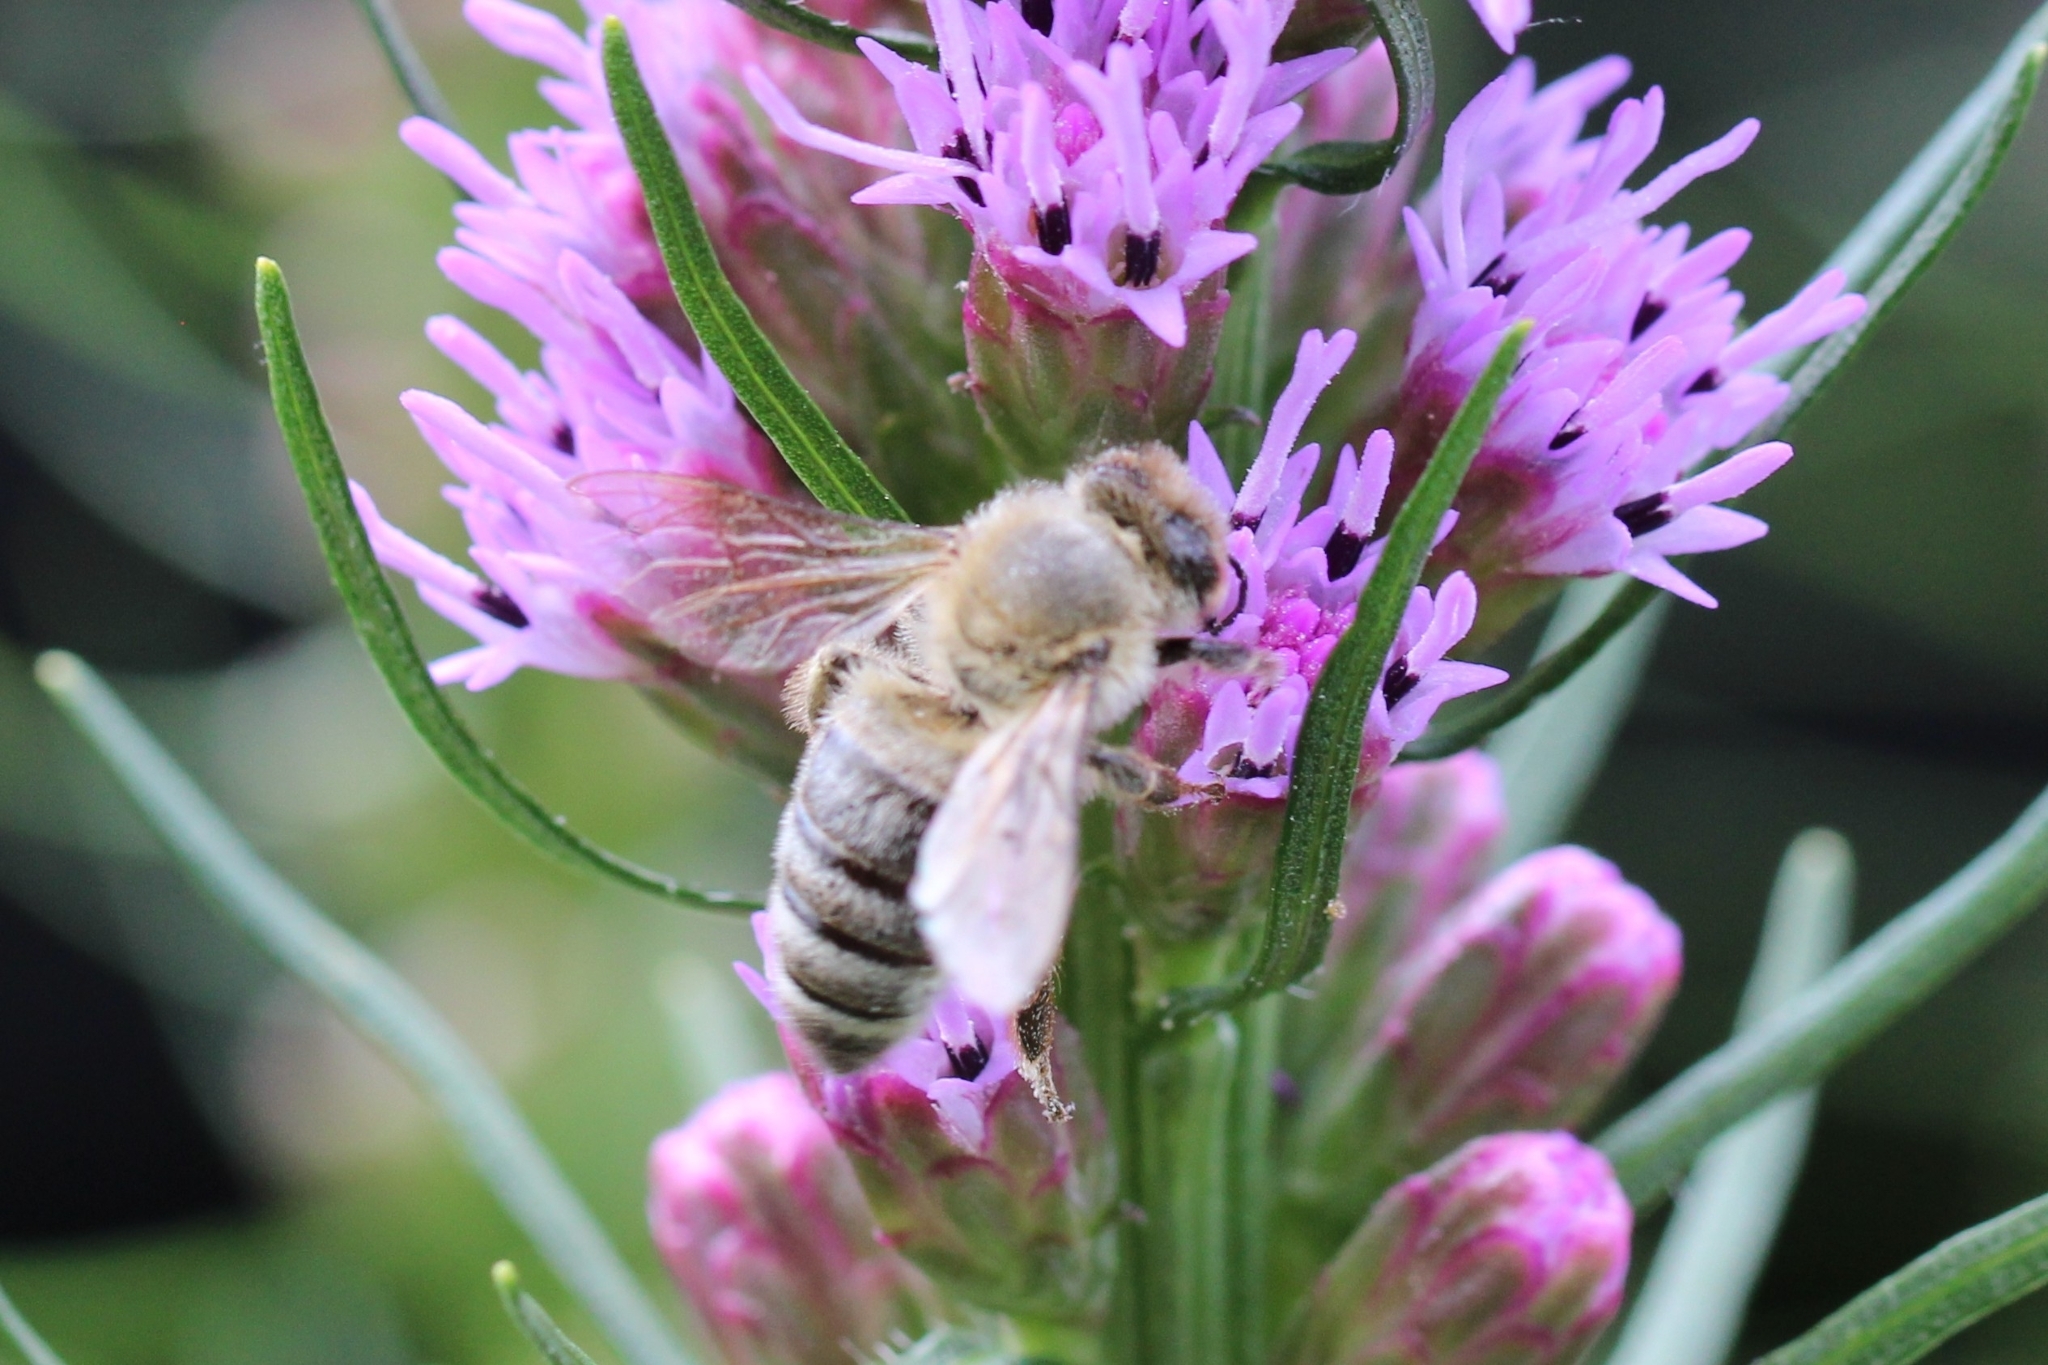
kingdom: Animalia
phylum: Arthropoda
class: Insecta
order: Hymenoptera
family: Apidae
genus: Apis
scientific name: Apis mellifera
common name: Honey bee
